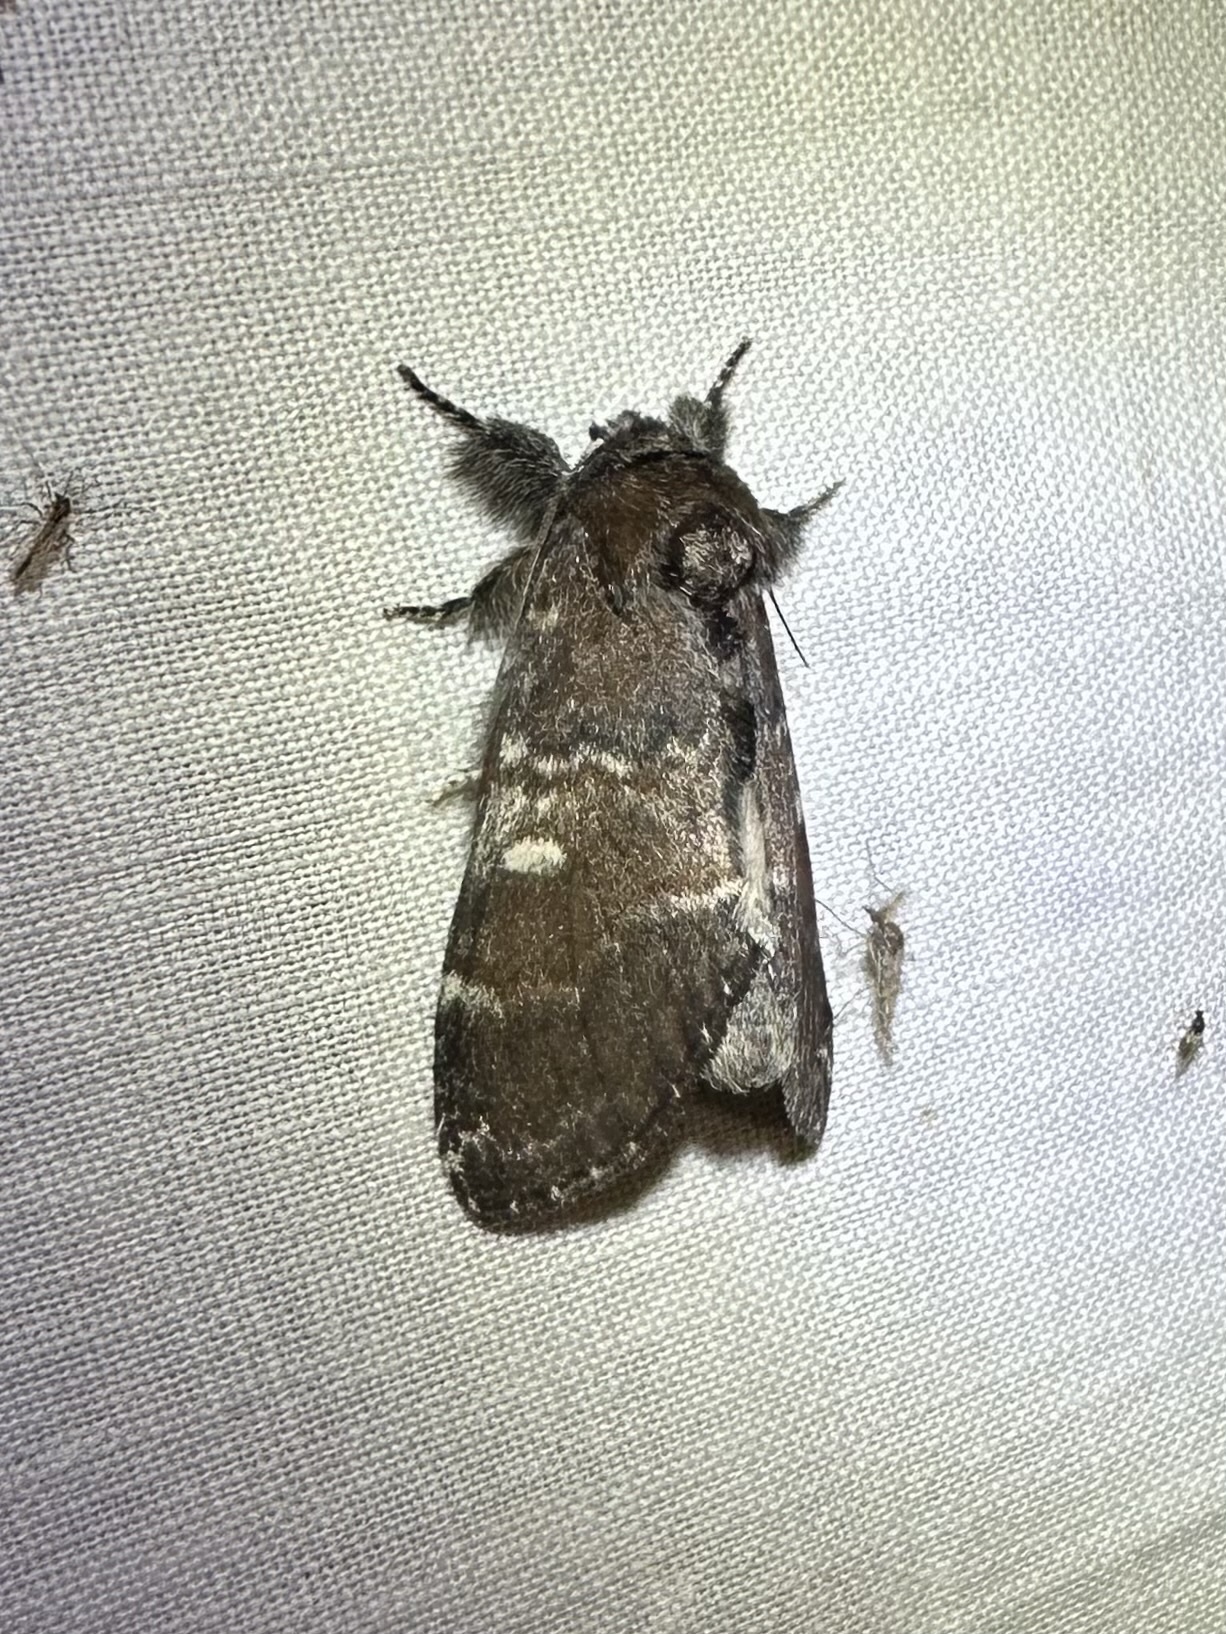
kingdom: Animalia
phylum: Arthropoda
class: Insecta
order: Lepidoptera
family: Notodontidae
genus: Peridea
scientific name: Peridea ferruginea
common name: Chocolate prominent
